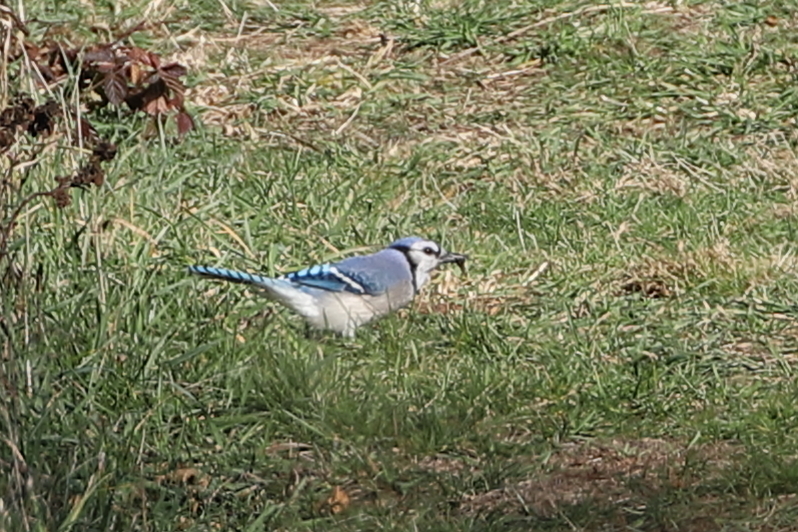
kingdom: Animalia
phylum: Chordata
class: Aves
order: Passeriformes
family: Corvidae
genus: Cyanocitta
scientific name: Cyanocitta cristata
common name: Blue jay
